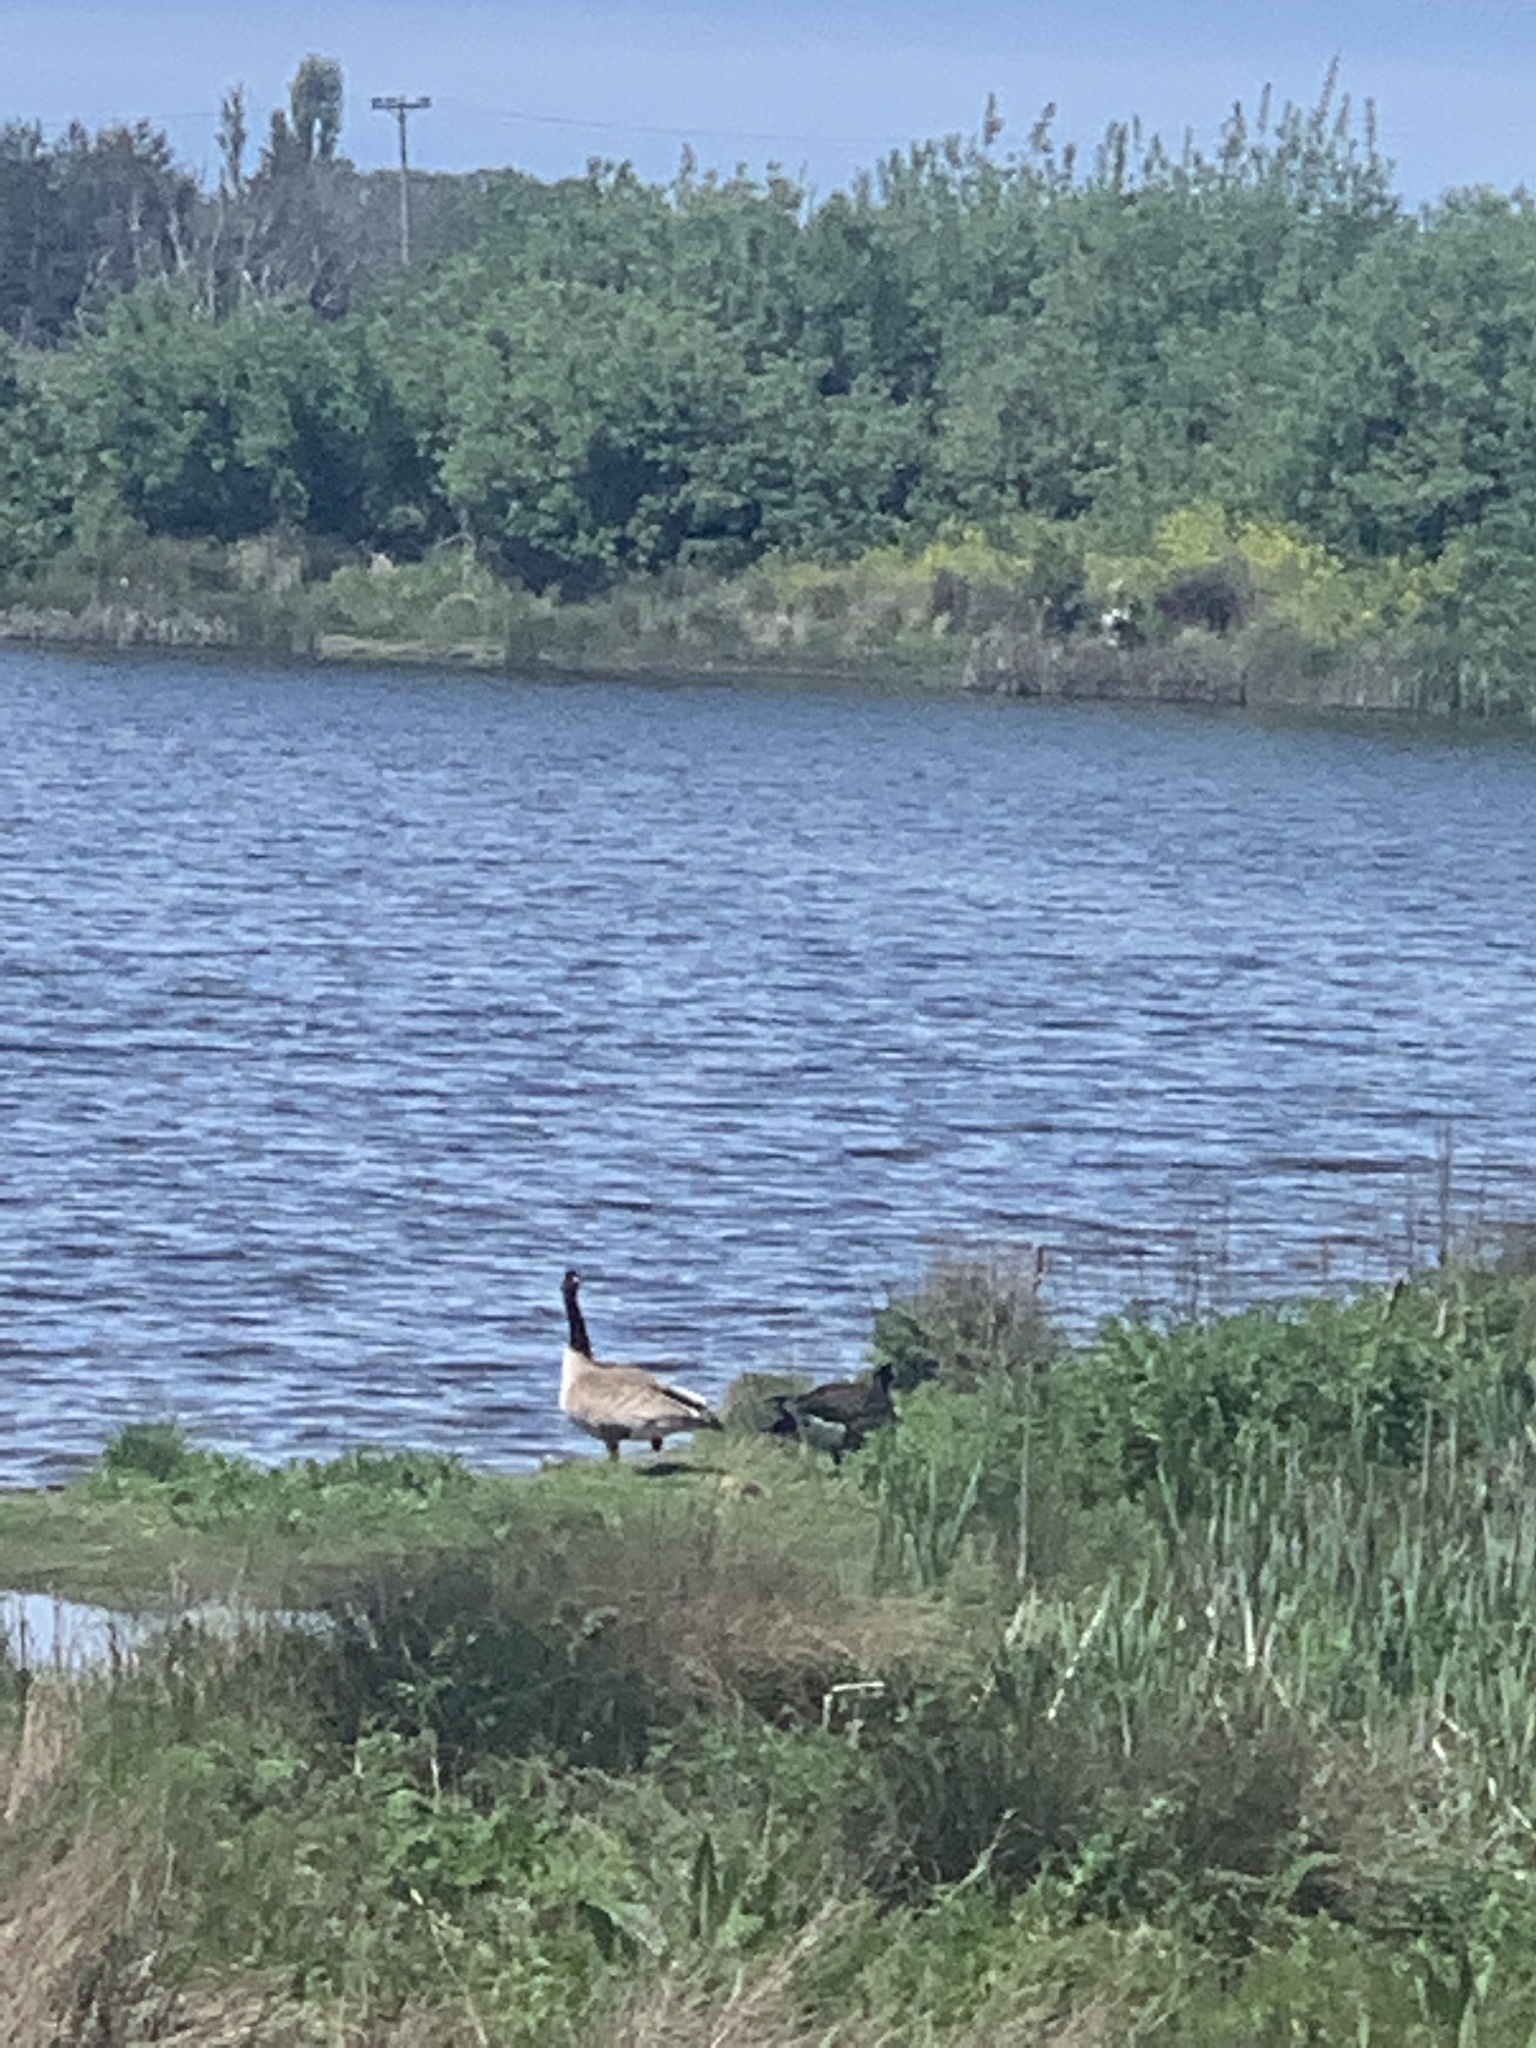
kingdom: Animalia
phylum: Chordata
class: Aves
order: Anseriformes
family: Anatidae
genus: Branta
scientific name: Branta canadensis
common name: Canada goose
